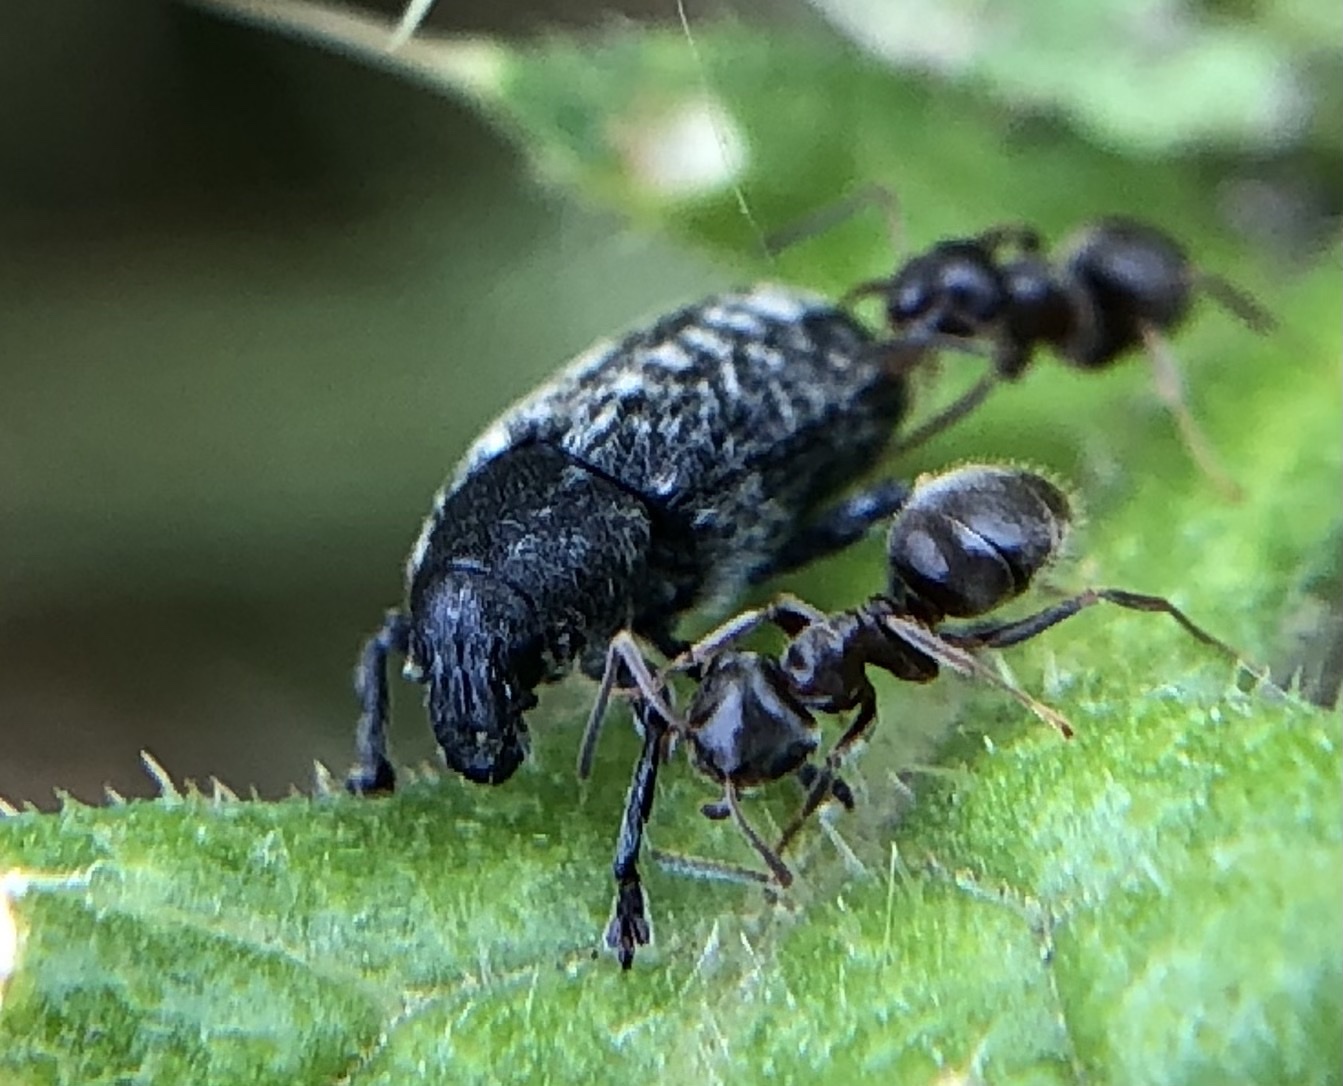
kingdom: Animalia
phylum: Arthropoda
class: Insecta
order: Coleoptera
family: Curculionidae
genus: Rhinocyllus
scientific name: Rhinocyllus conicus
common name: Weevil
